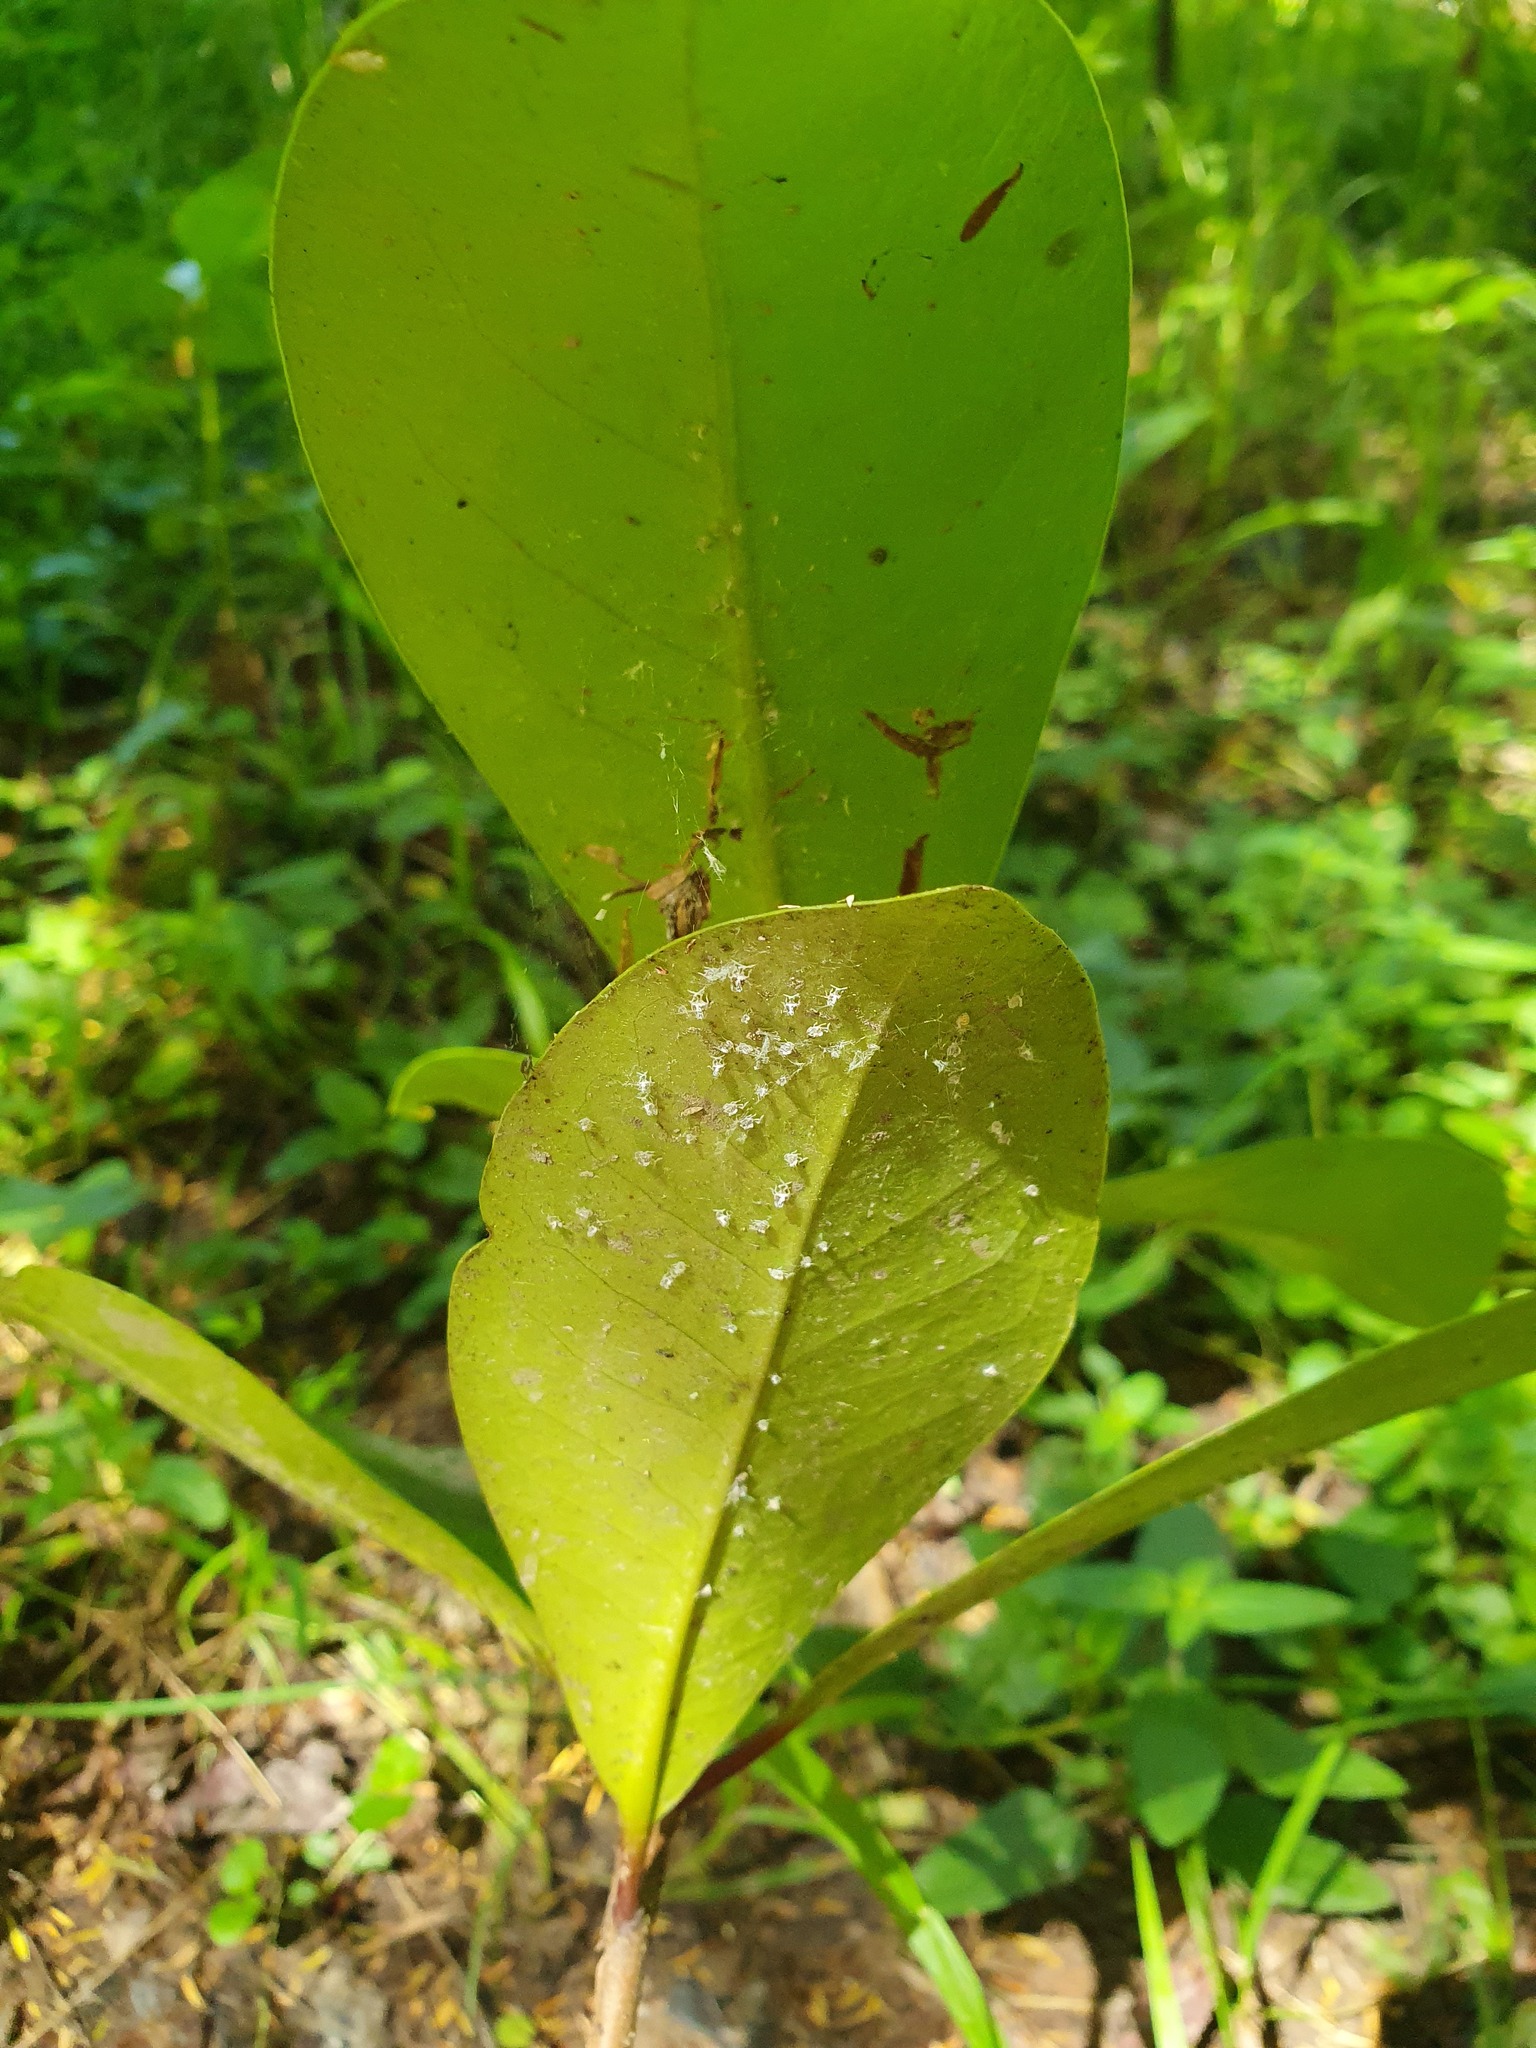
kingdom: Plantae
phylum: Tracheophyta
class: Magnoliopsida
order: Cucurbitales
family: Corynocarpaceae
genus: Corynocarpus
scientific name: Corynocarpus laevigatus
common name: New zealand laurel
